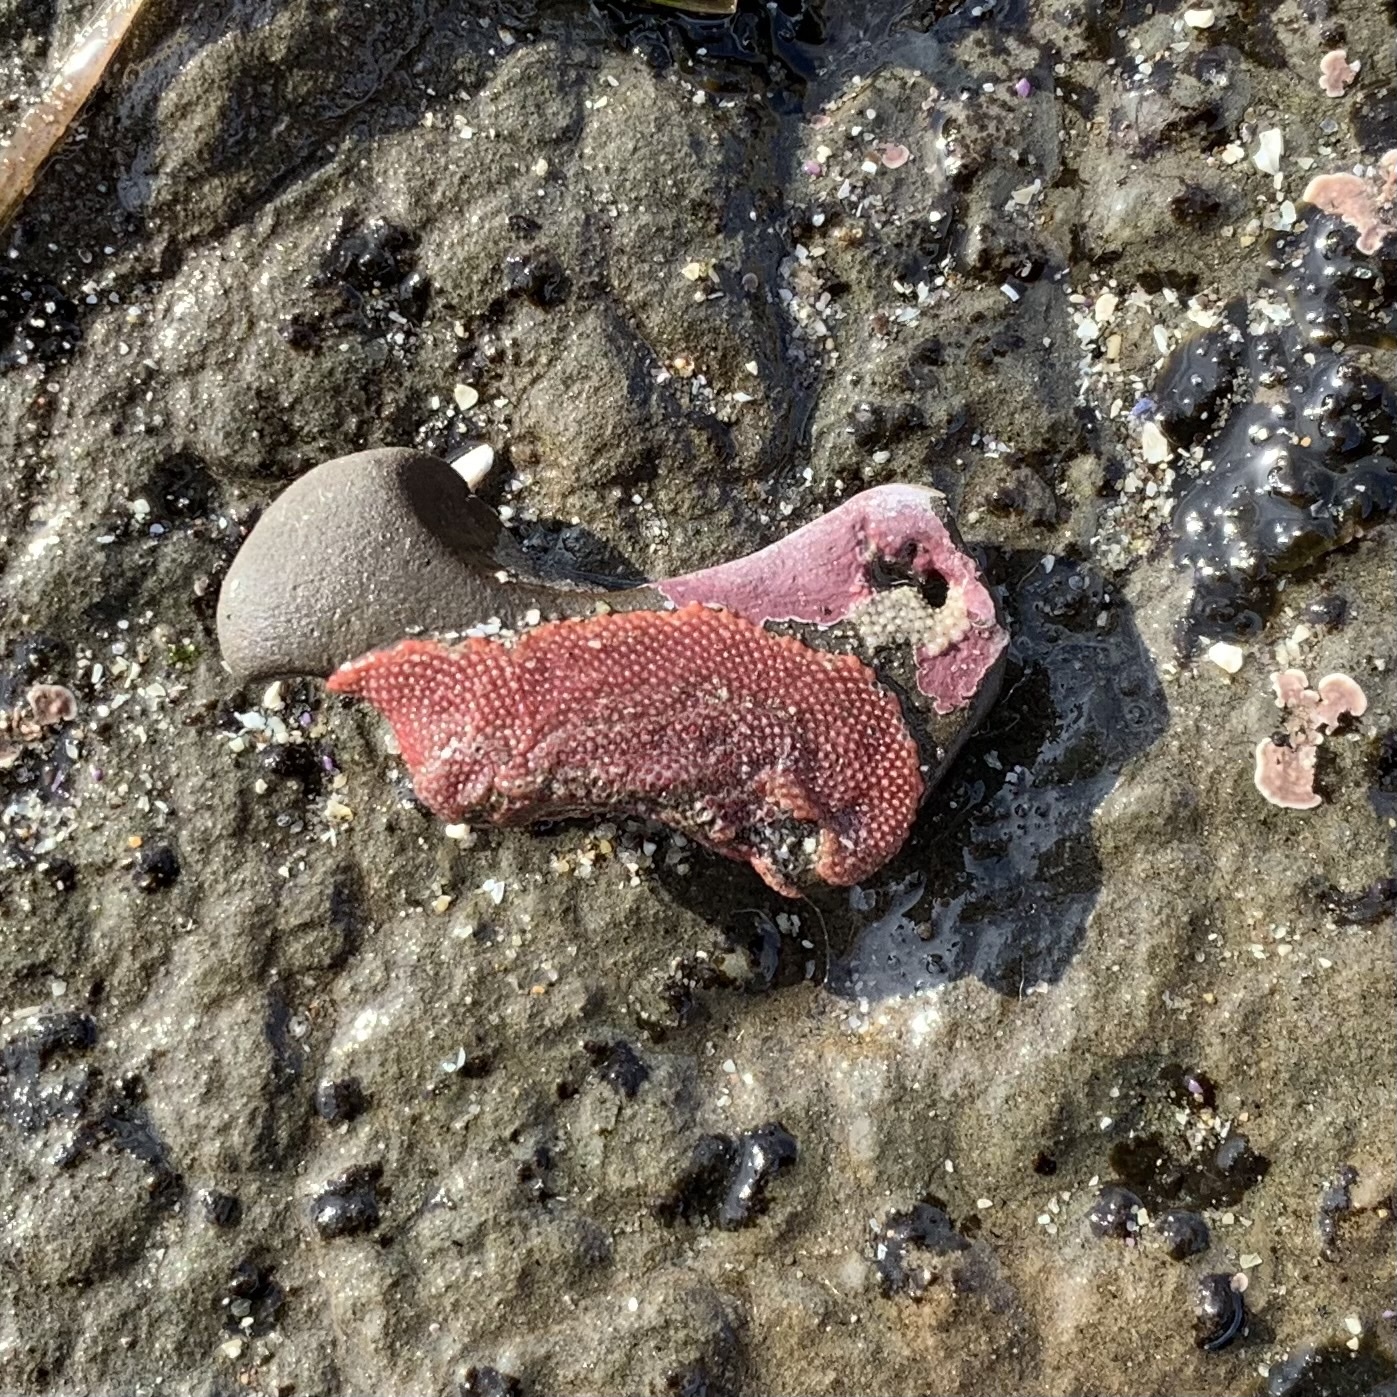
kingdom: Animalia
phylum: Bryozoa
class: Gymnolaemata
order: Cheilostomatida
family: Eurystomellidae
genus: Integripelta
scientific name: Integripelta bilabiata
